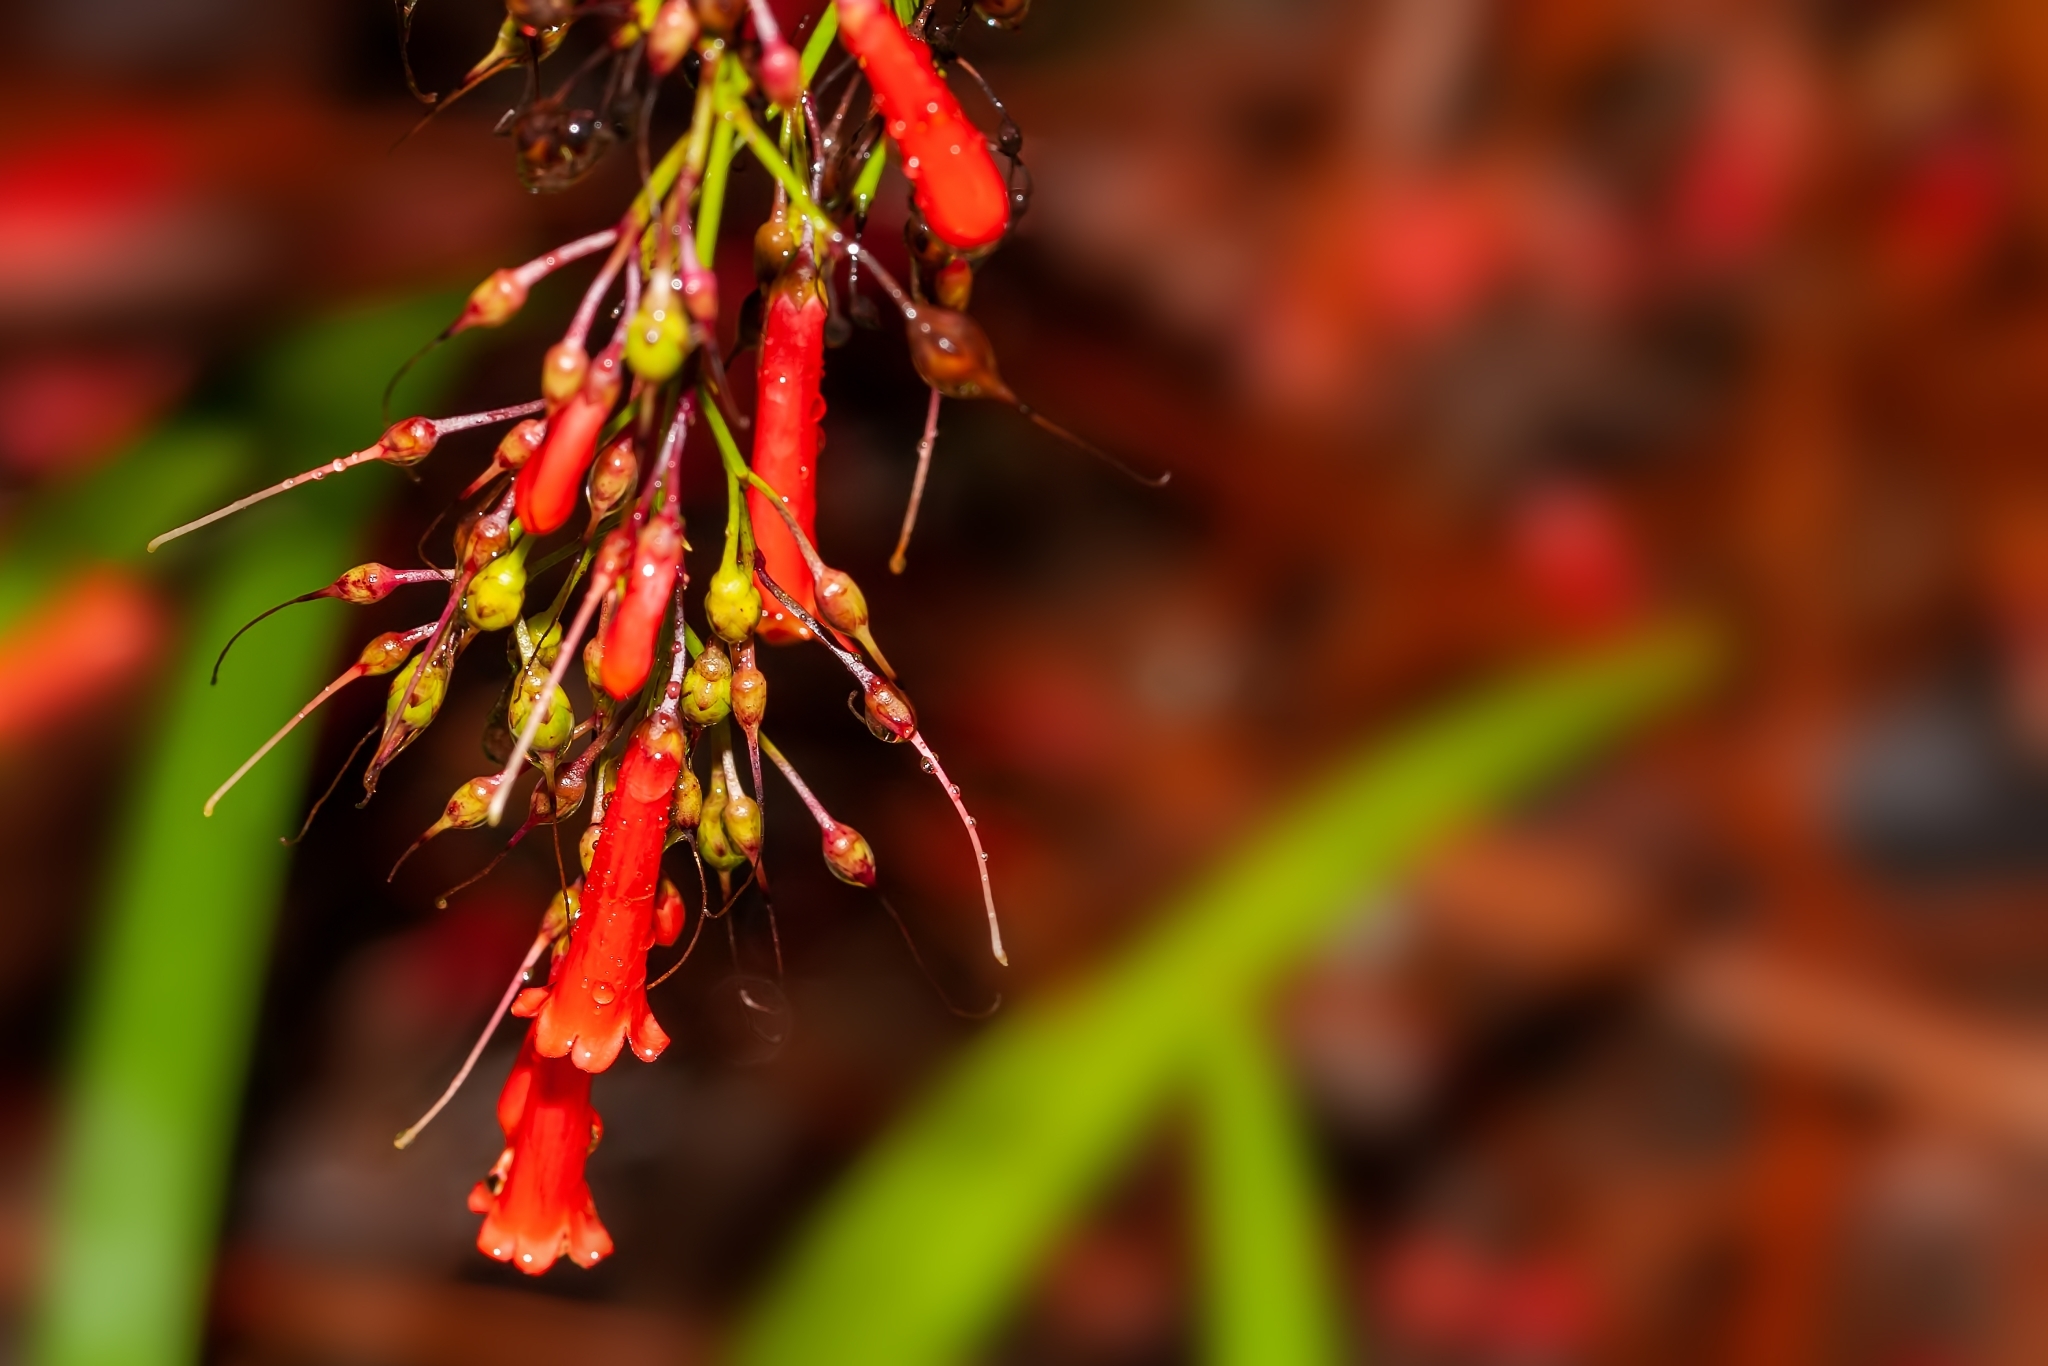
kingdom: Plantae
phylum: Tracheophyta
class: Magnoliopsida
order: Lamiales
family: Plantaginaceae
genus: Russelia
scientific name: Russelia equisetiformis
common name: Fountainbush
